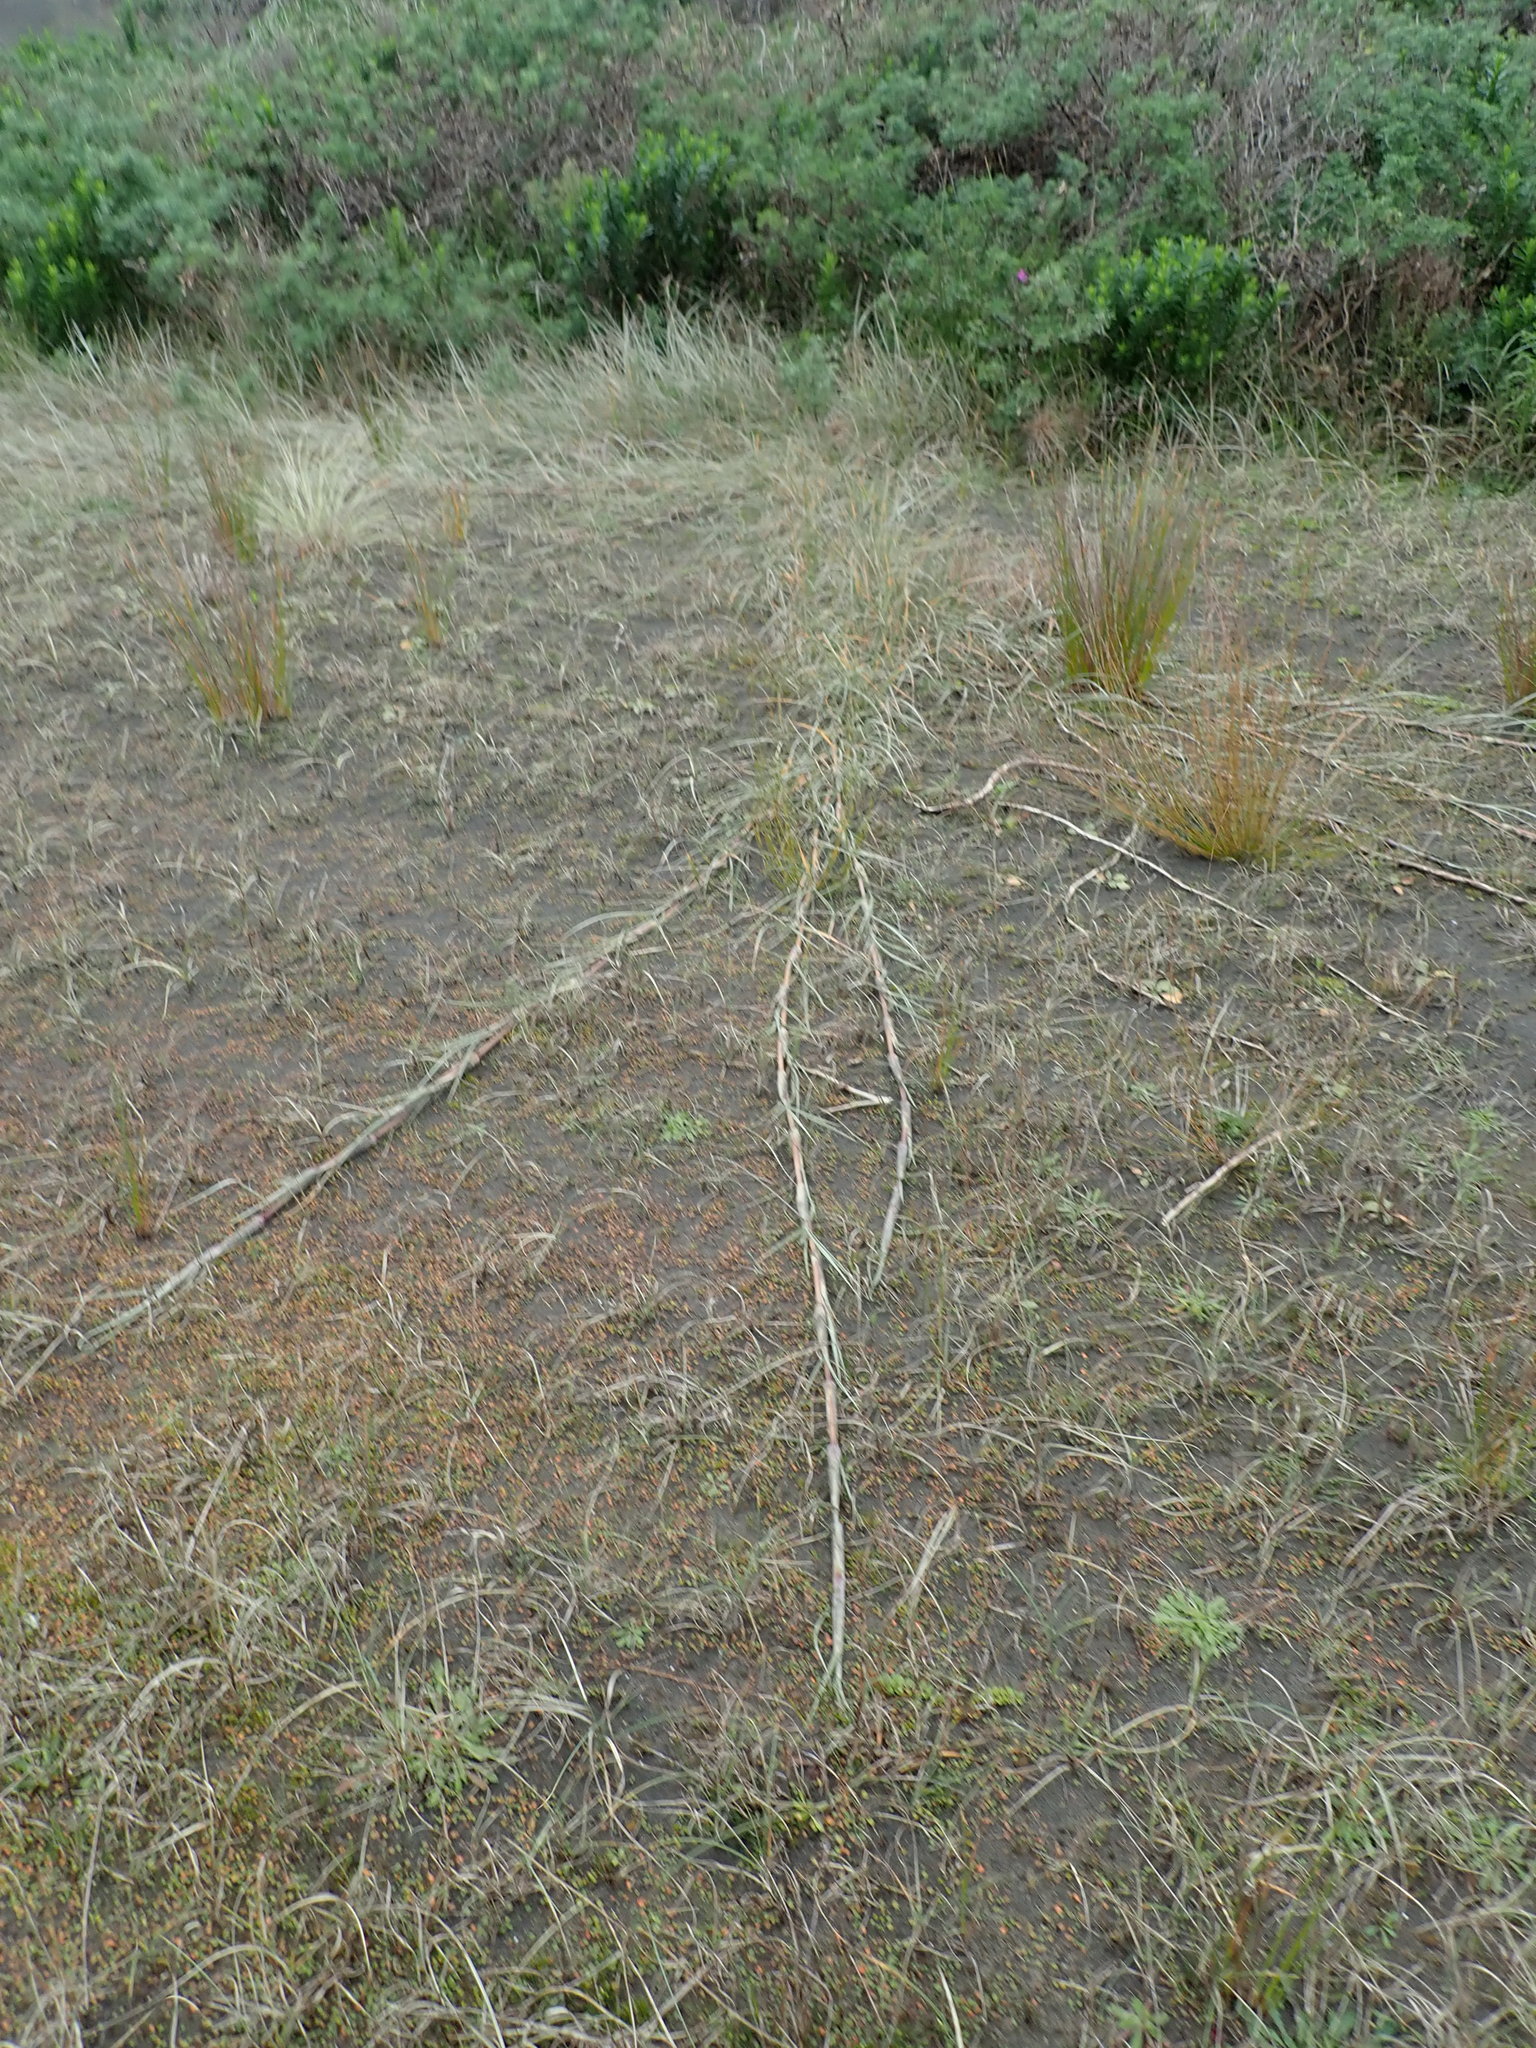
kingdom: Plantae
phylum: Tracheophyta
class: Liliopsida
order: Poales
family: Poaceae
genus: Spinifex
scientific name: Spinifex sericeus
